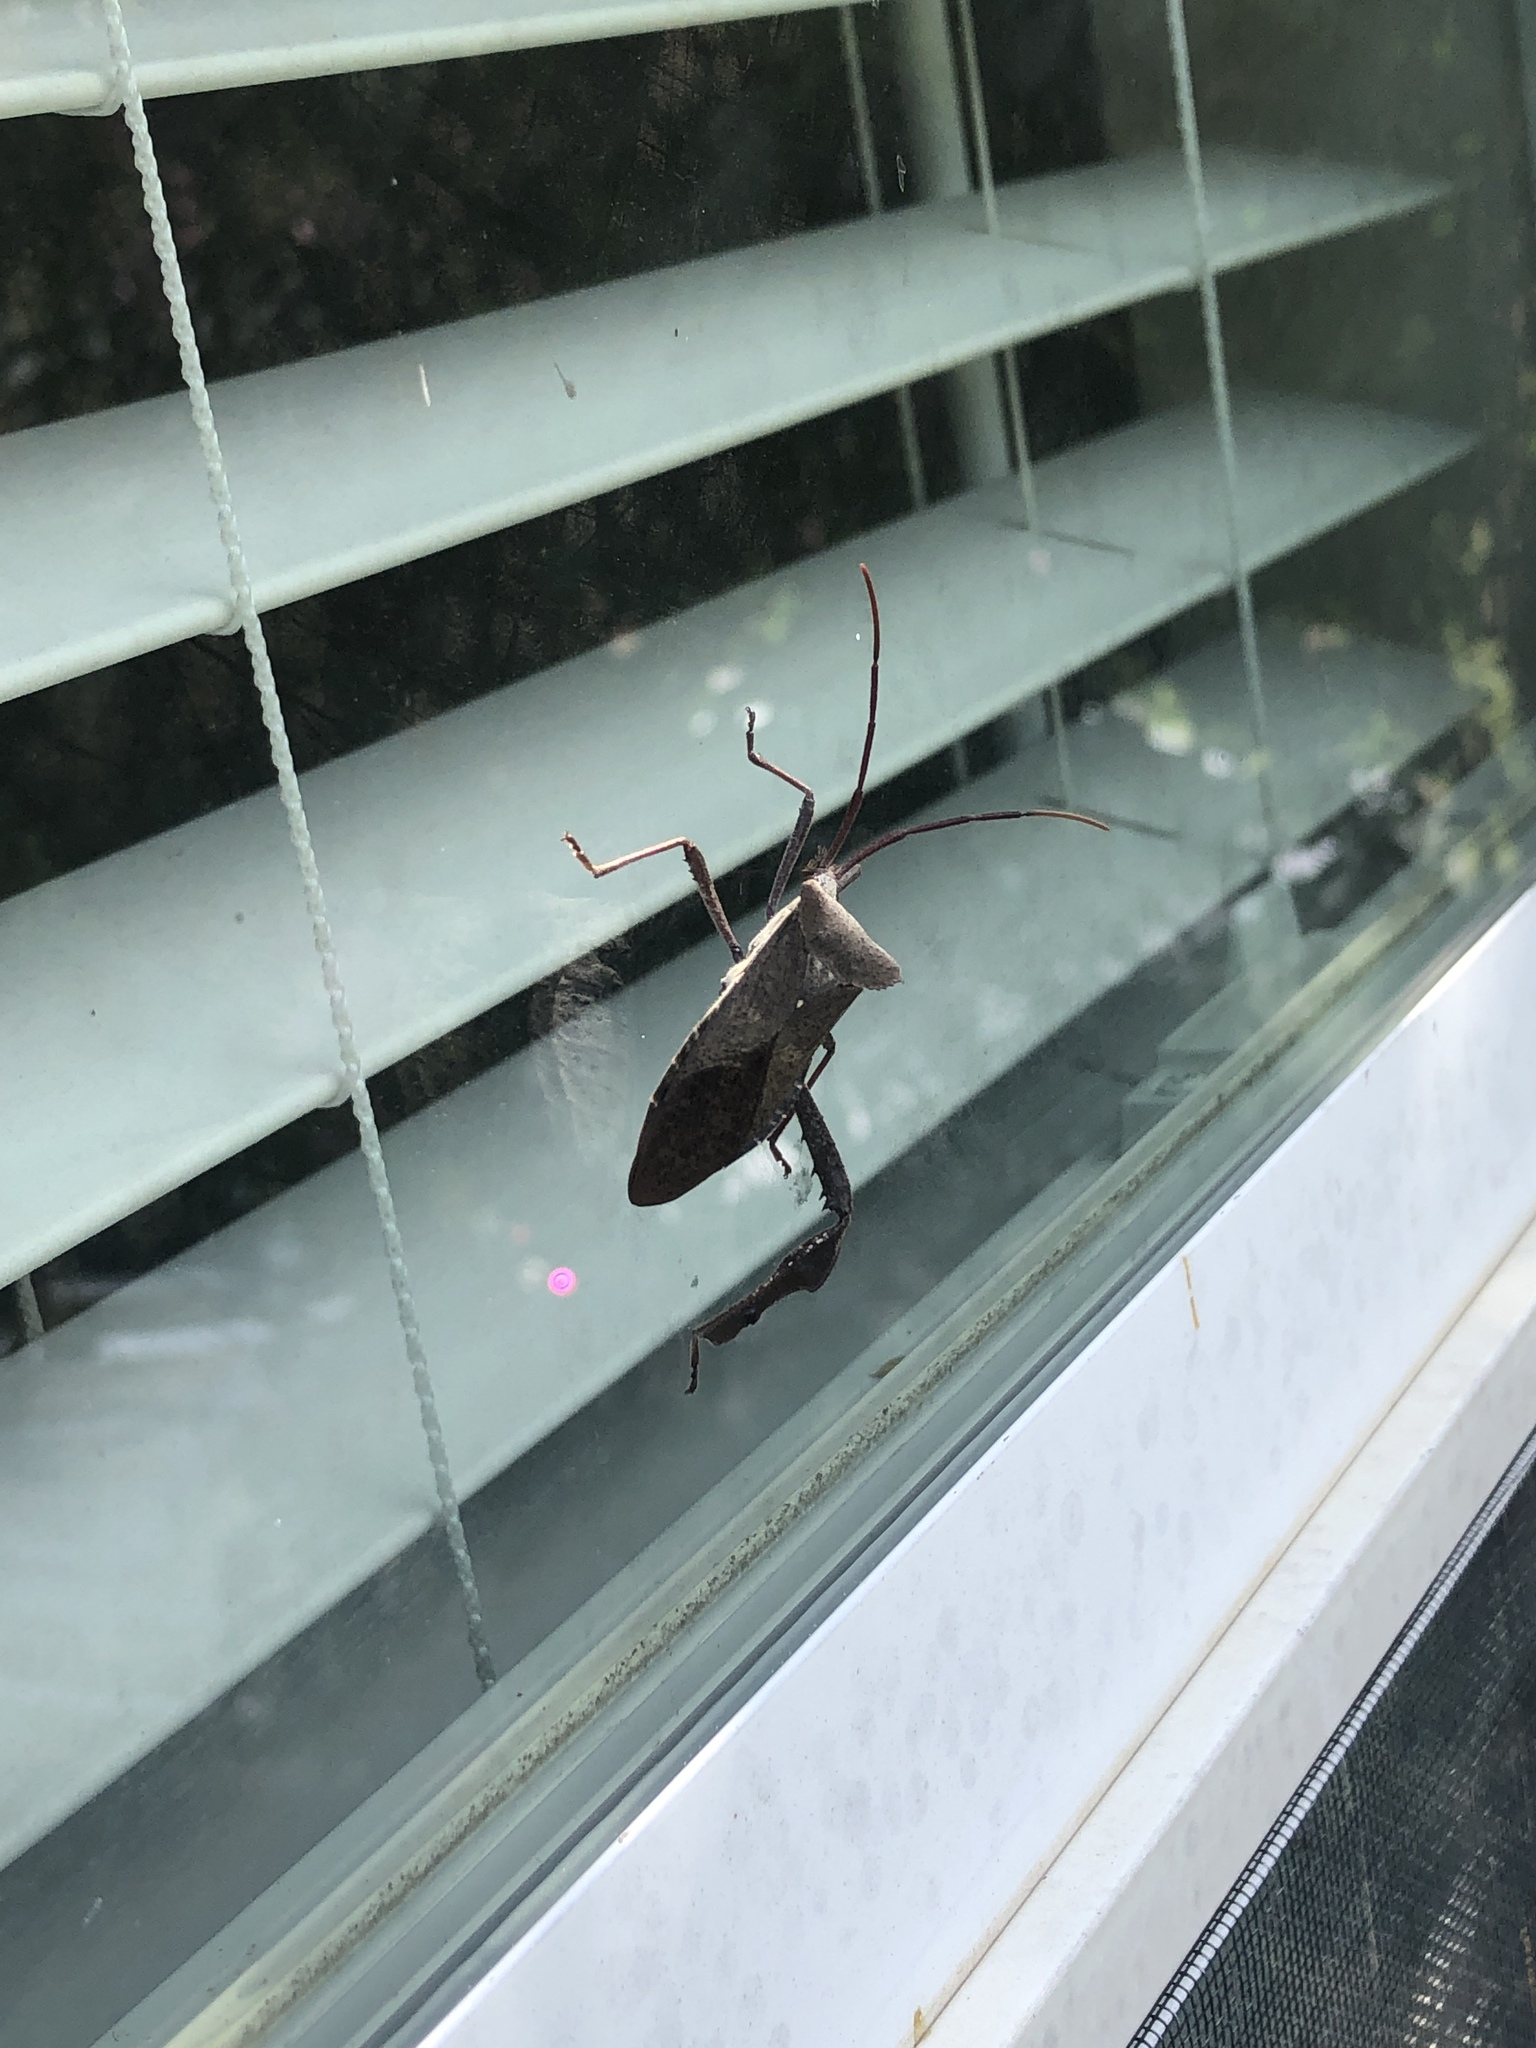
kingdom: Animalia
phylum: Arthropoda
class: Insecta
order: Hemiptera
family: Coreidae
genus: Acanthocephala
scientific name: Acanthocephala declivis
